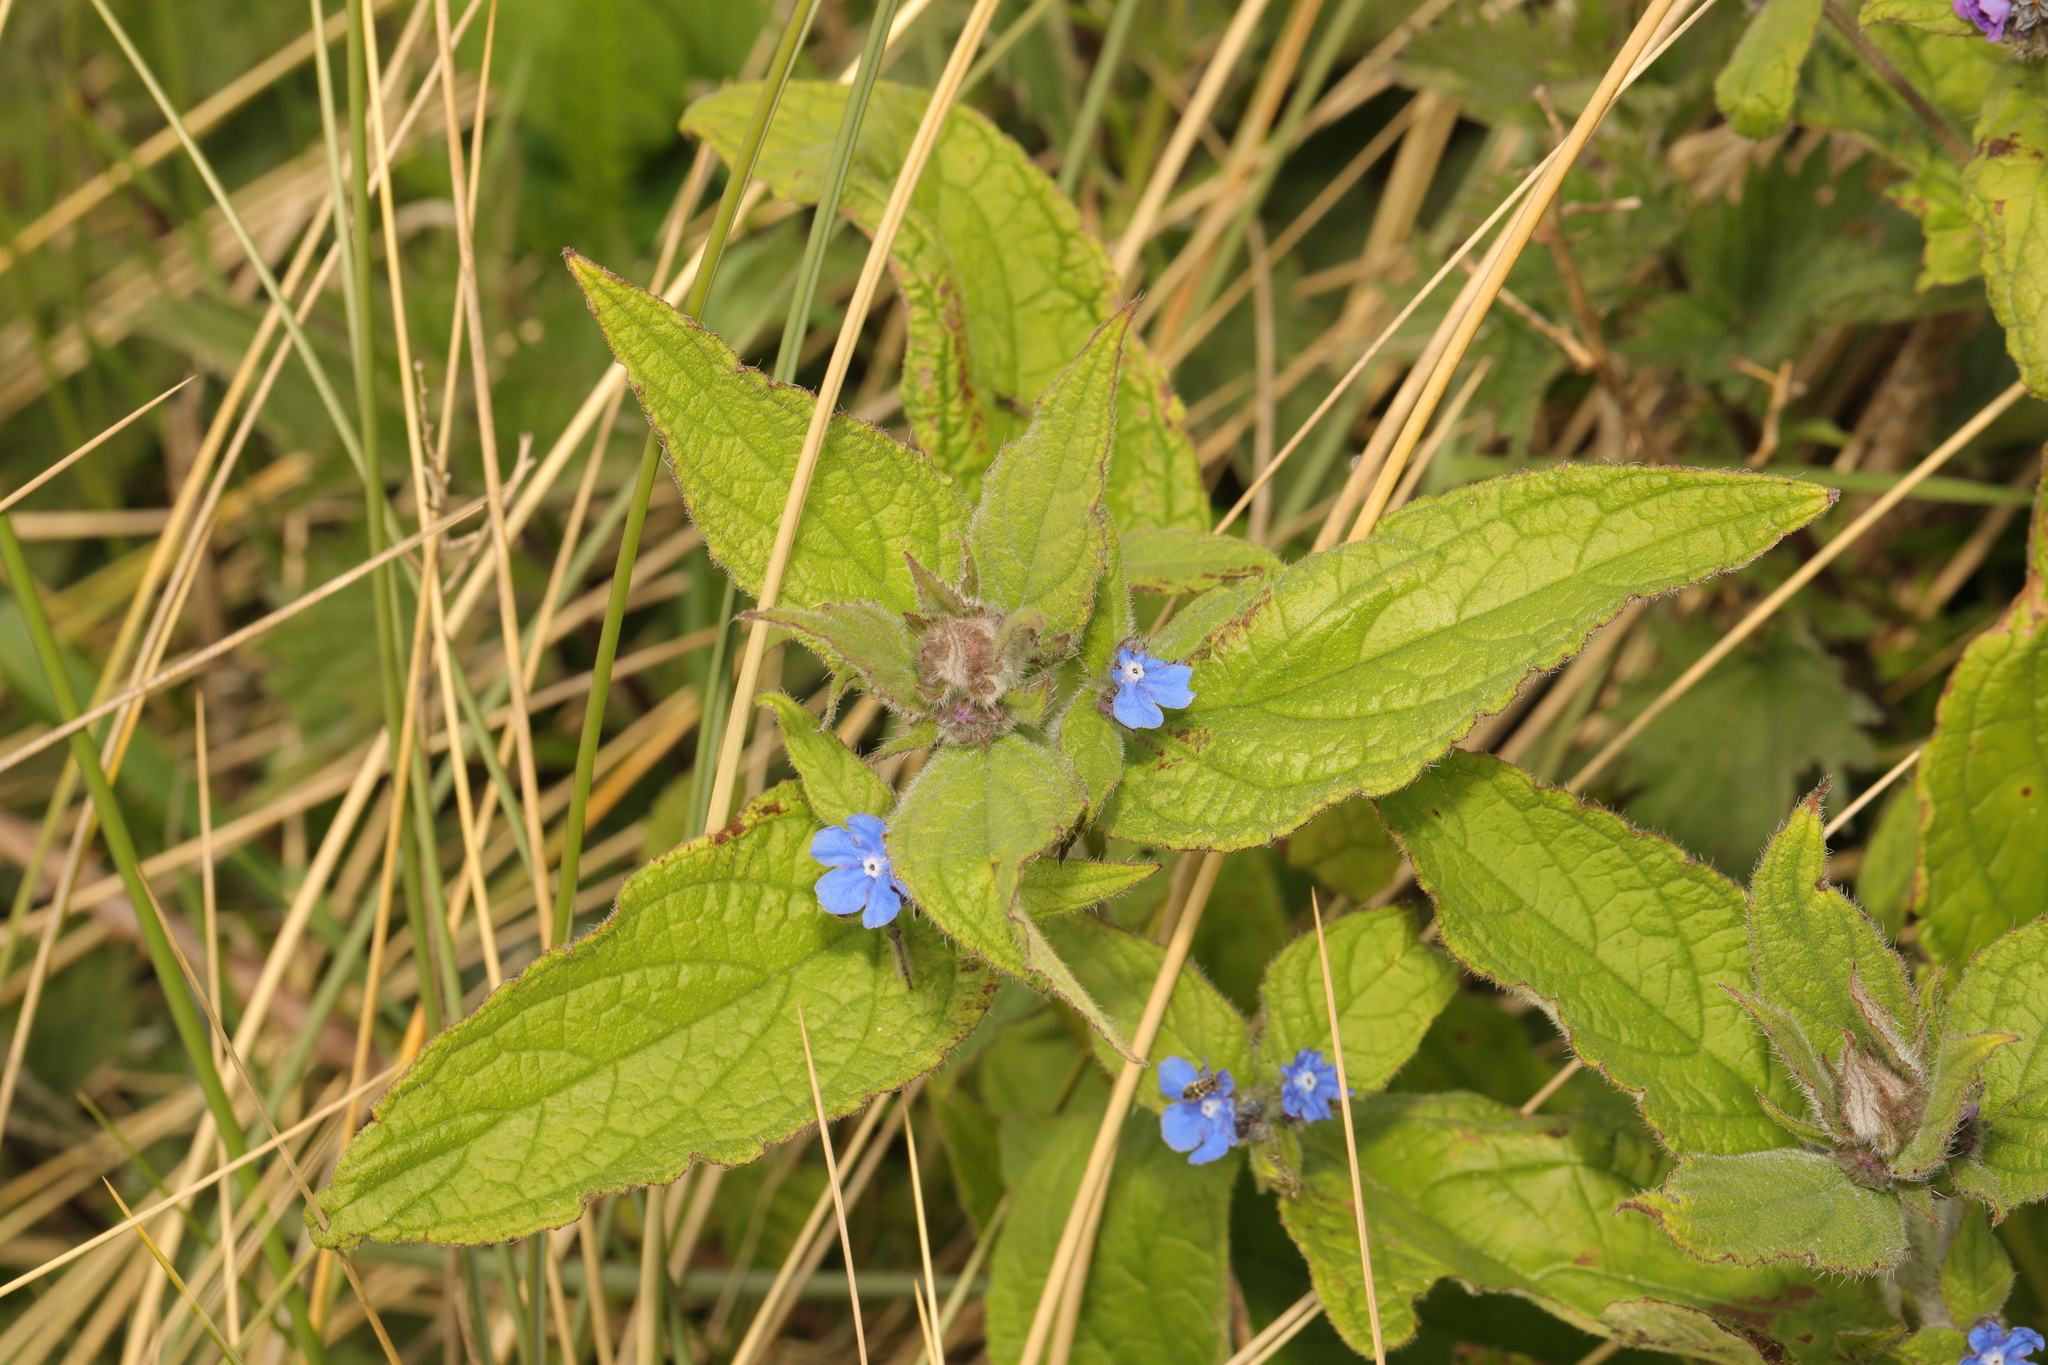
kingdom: Plantae
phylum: Tracheophyta
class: Magnoliopsida
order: Boraginales
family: Boraginaceae
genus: Pentaglottis
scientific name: Pentaglottis sempervirens
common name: Green alkanet
